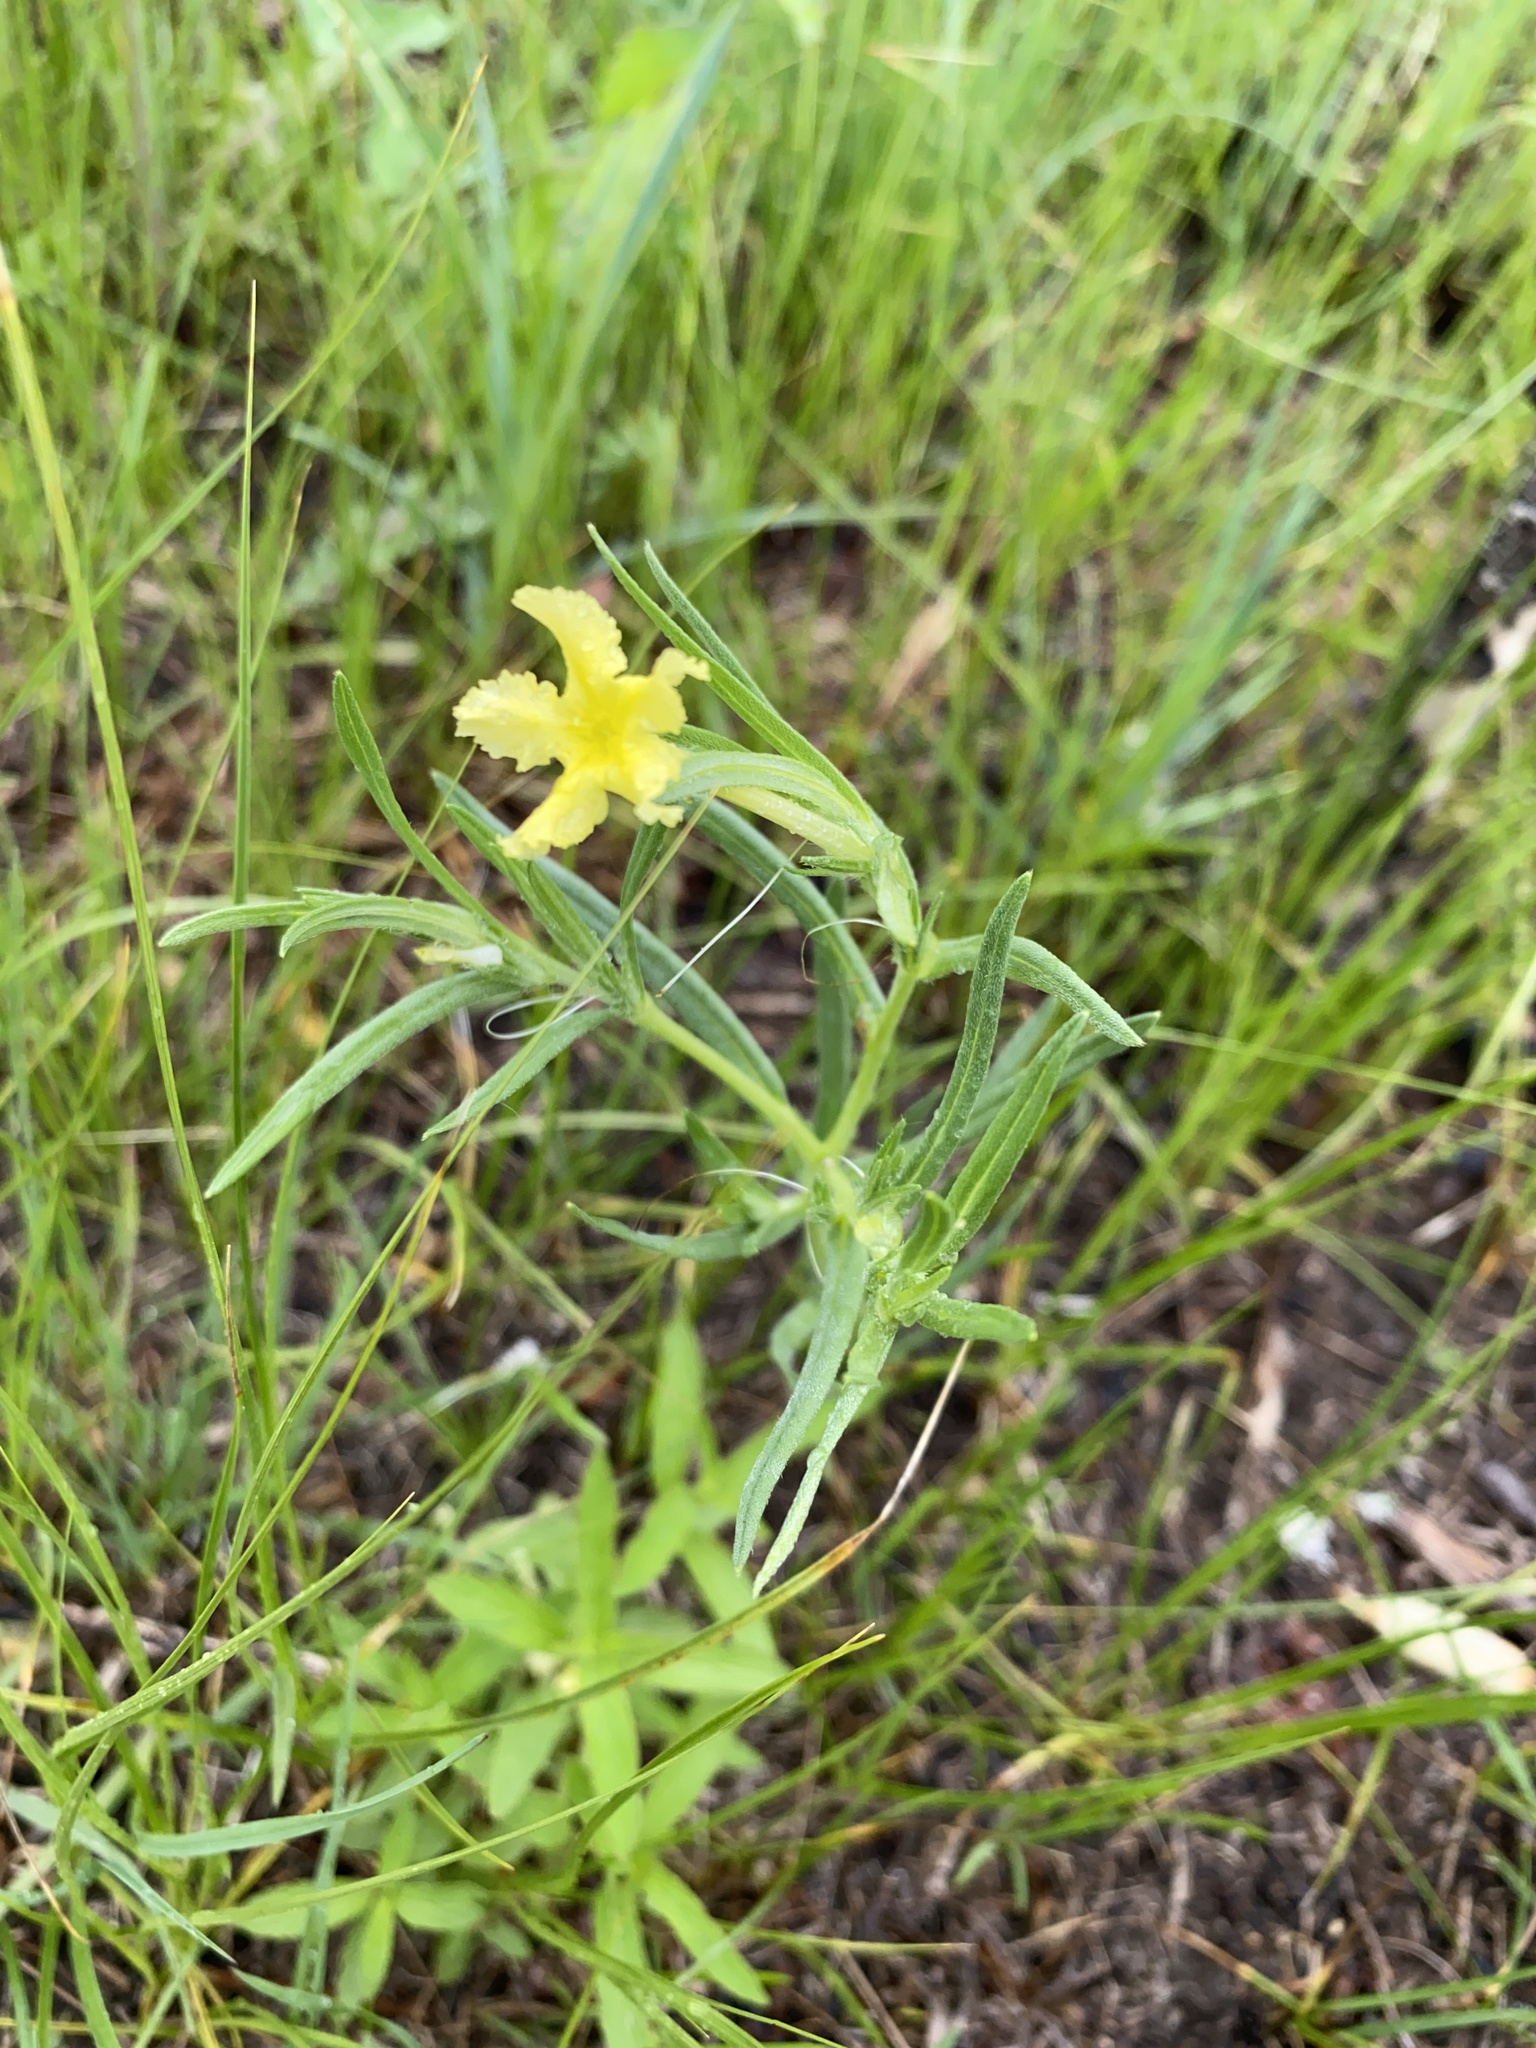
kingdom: Plantae
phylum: Tracheophyta
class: Magnoliopsida
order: Boraginales
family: Boraginaceae
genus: Lithospermum
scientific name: Lithospermum incisum
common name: Fringed gromwell
